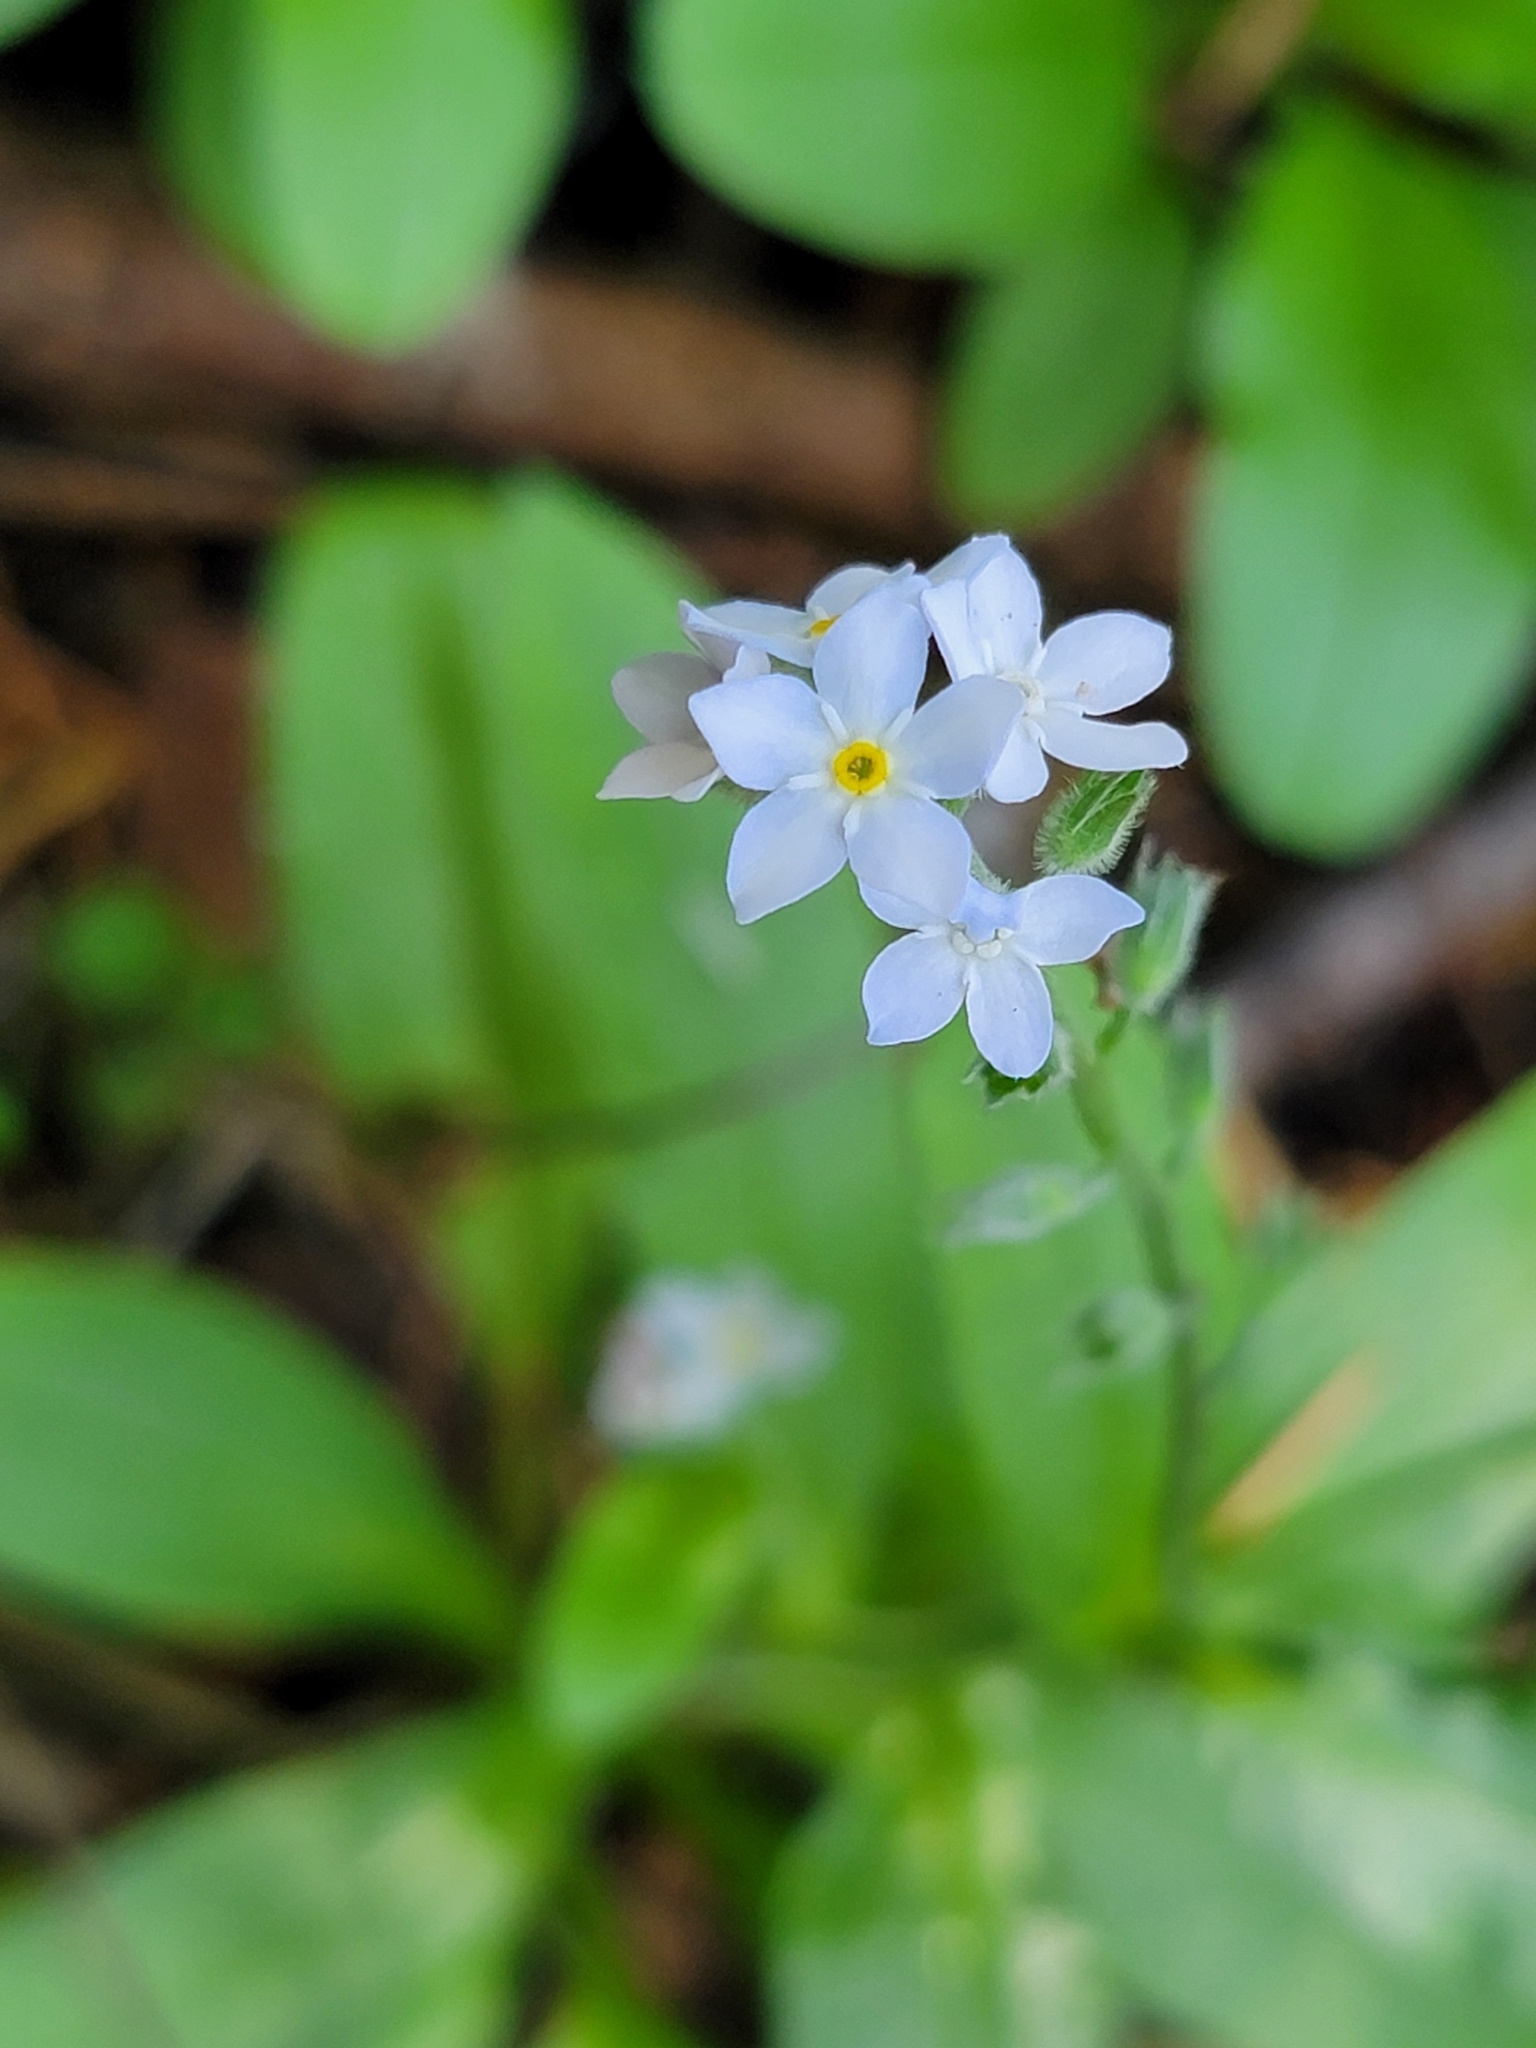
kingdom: Plantae
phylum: Tracheophyta
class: Magnoliopsida
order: Boraginales
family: Boraginaceae
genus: Myosotis
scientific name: Myosotis latifolia
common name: Broadleaf forget-me-not
